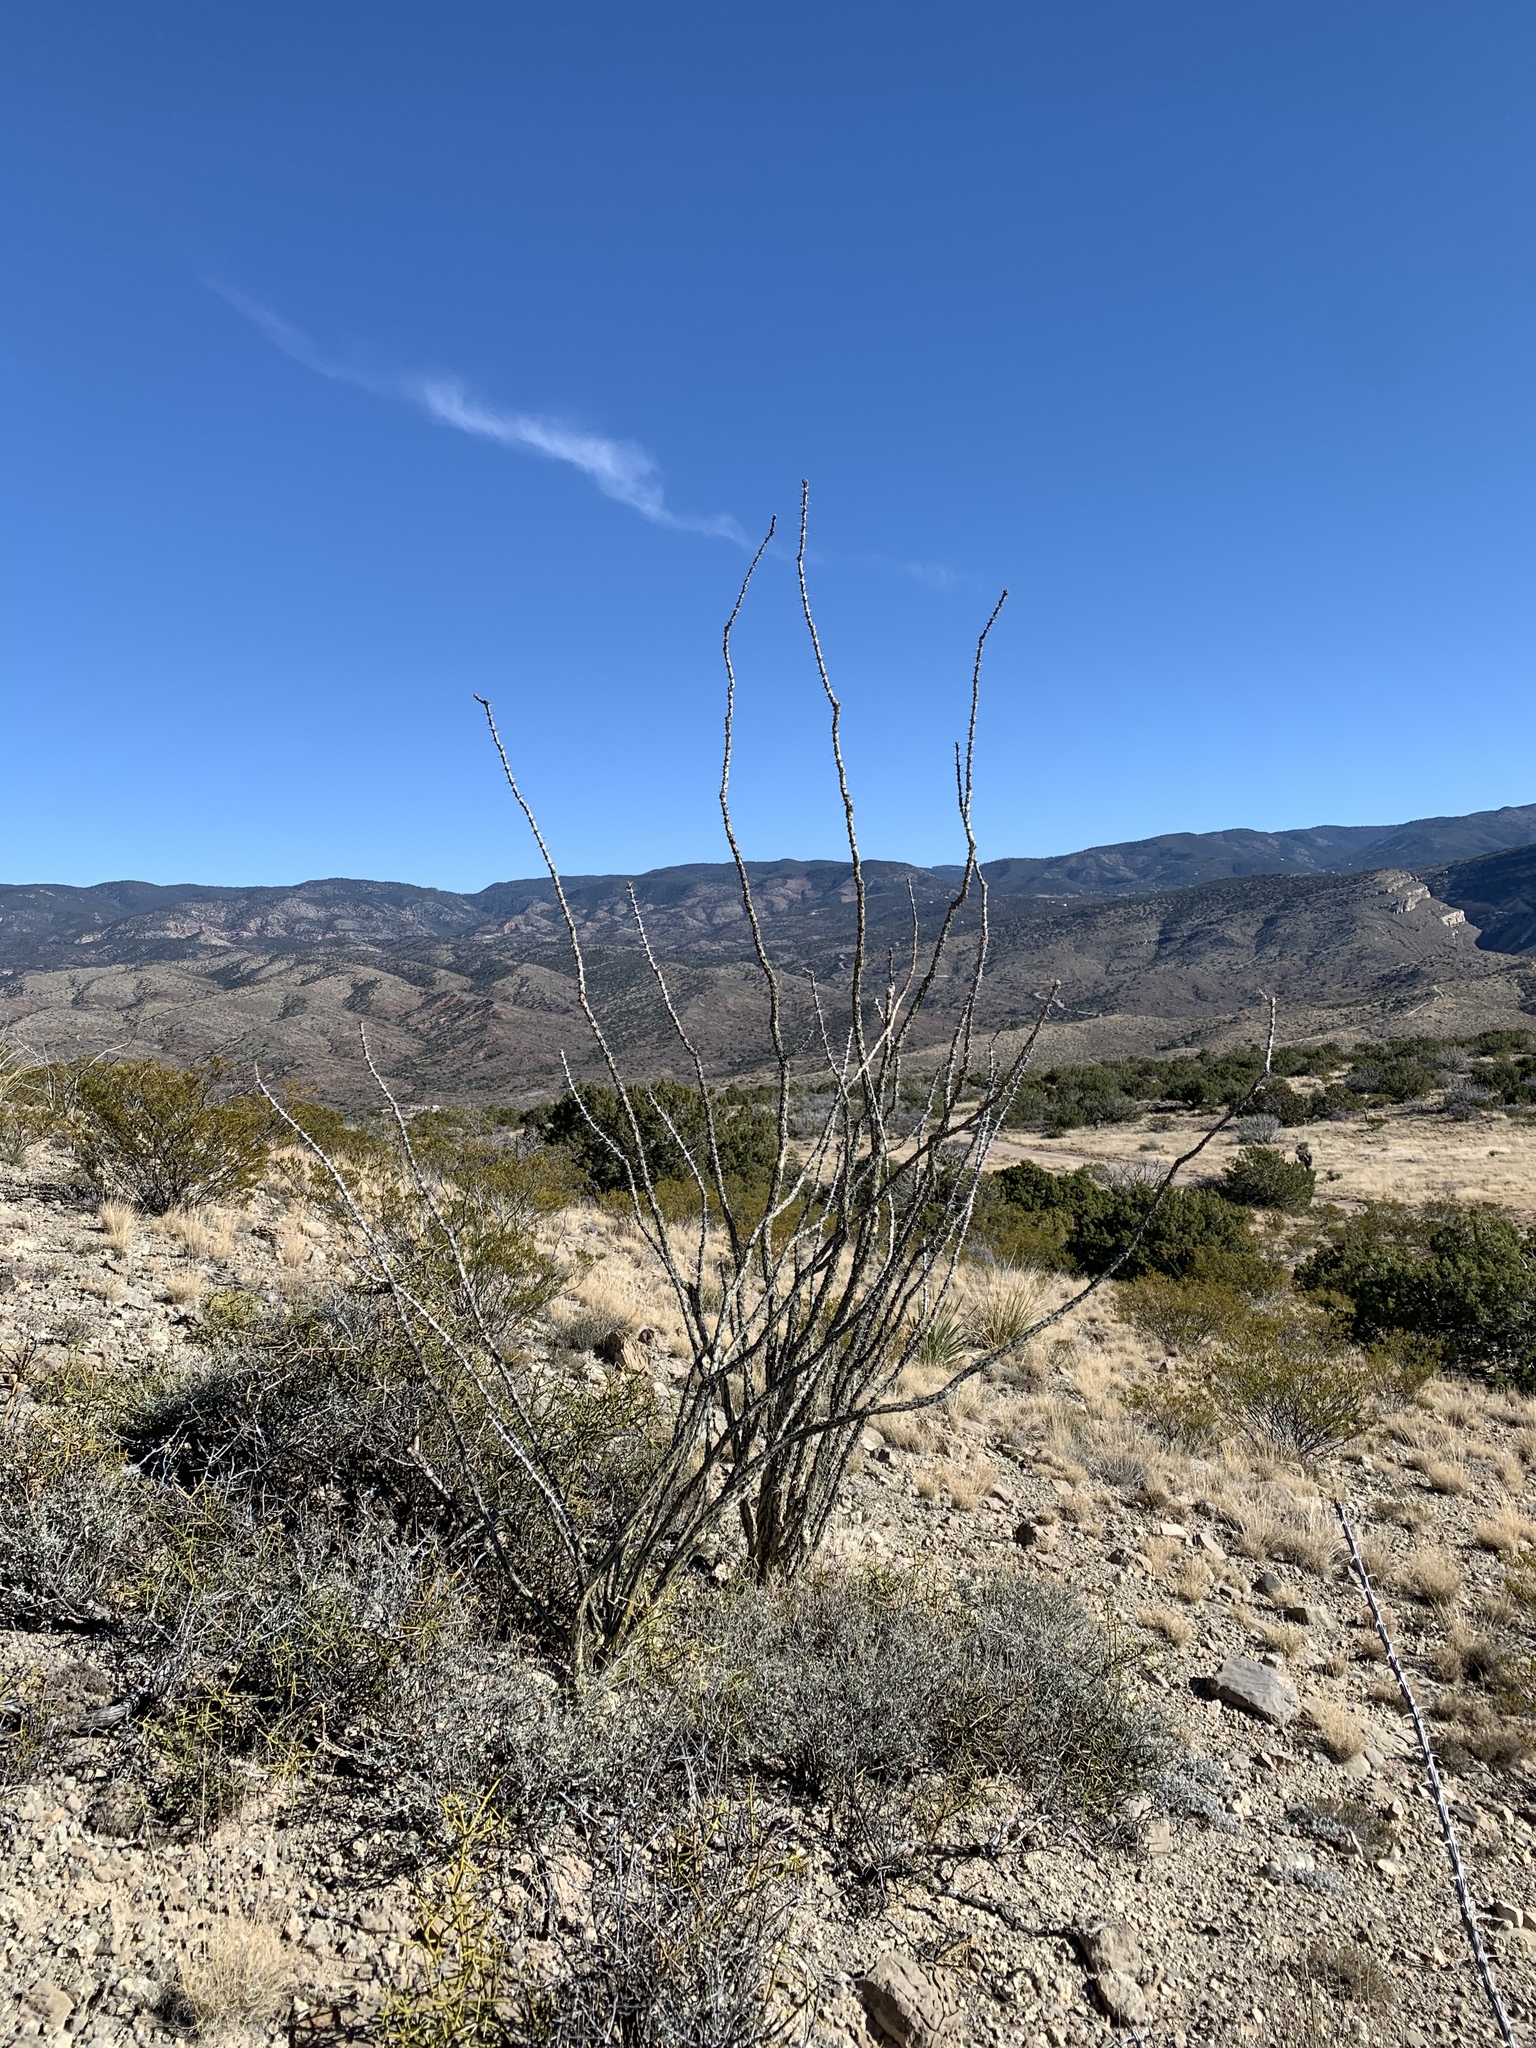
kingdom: Plantae
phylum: Tracheophyta
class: Magnoliopsida
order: Ericales
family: Fouquieriaceae
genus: Fouquieria
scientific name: Fouquieria splendens
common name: Vine-cactus
